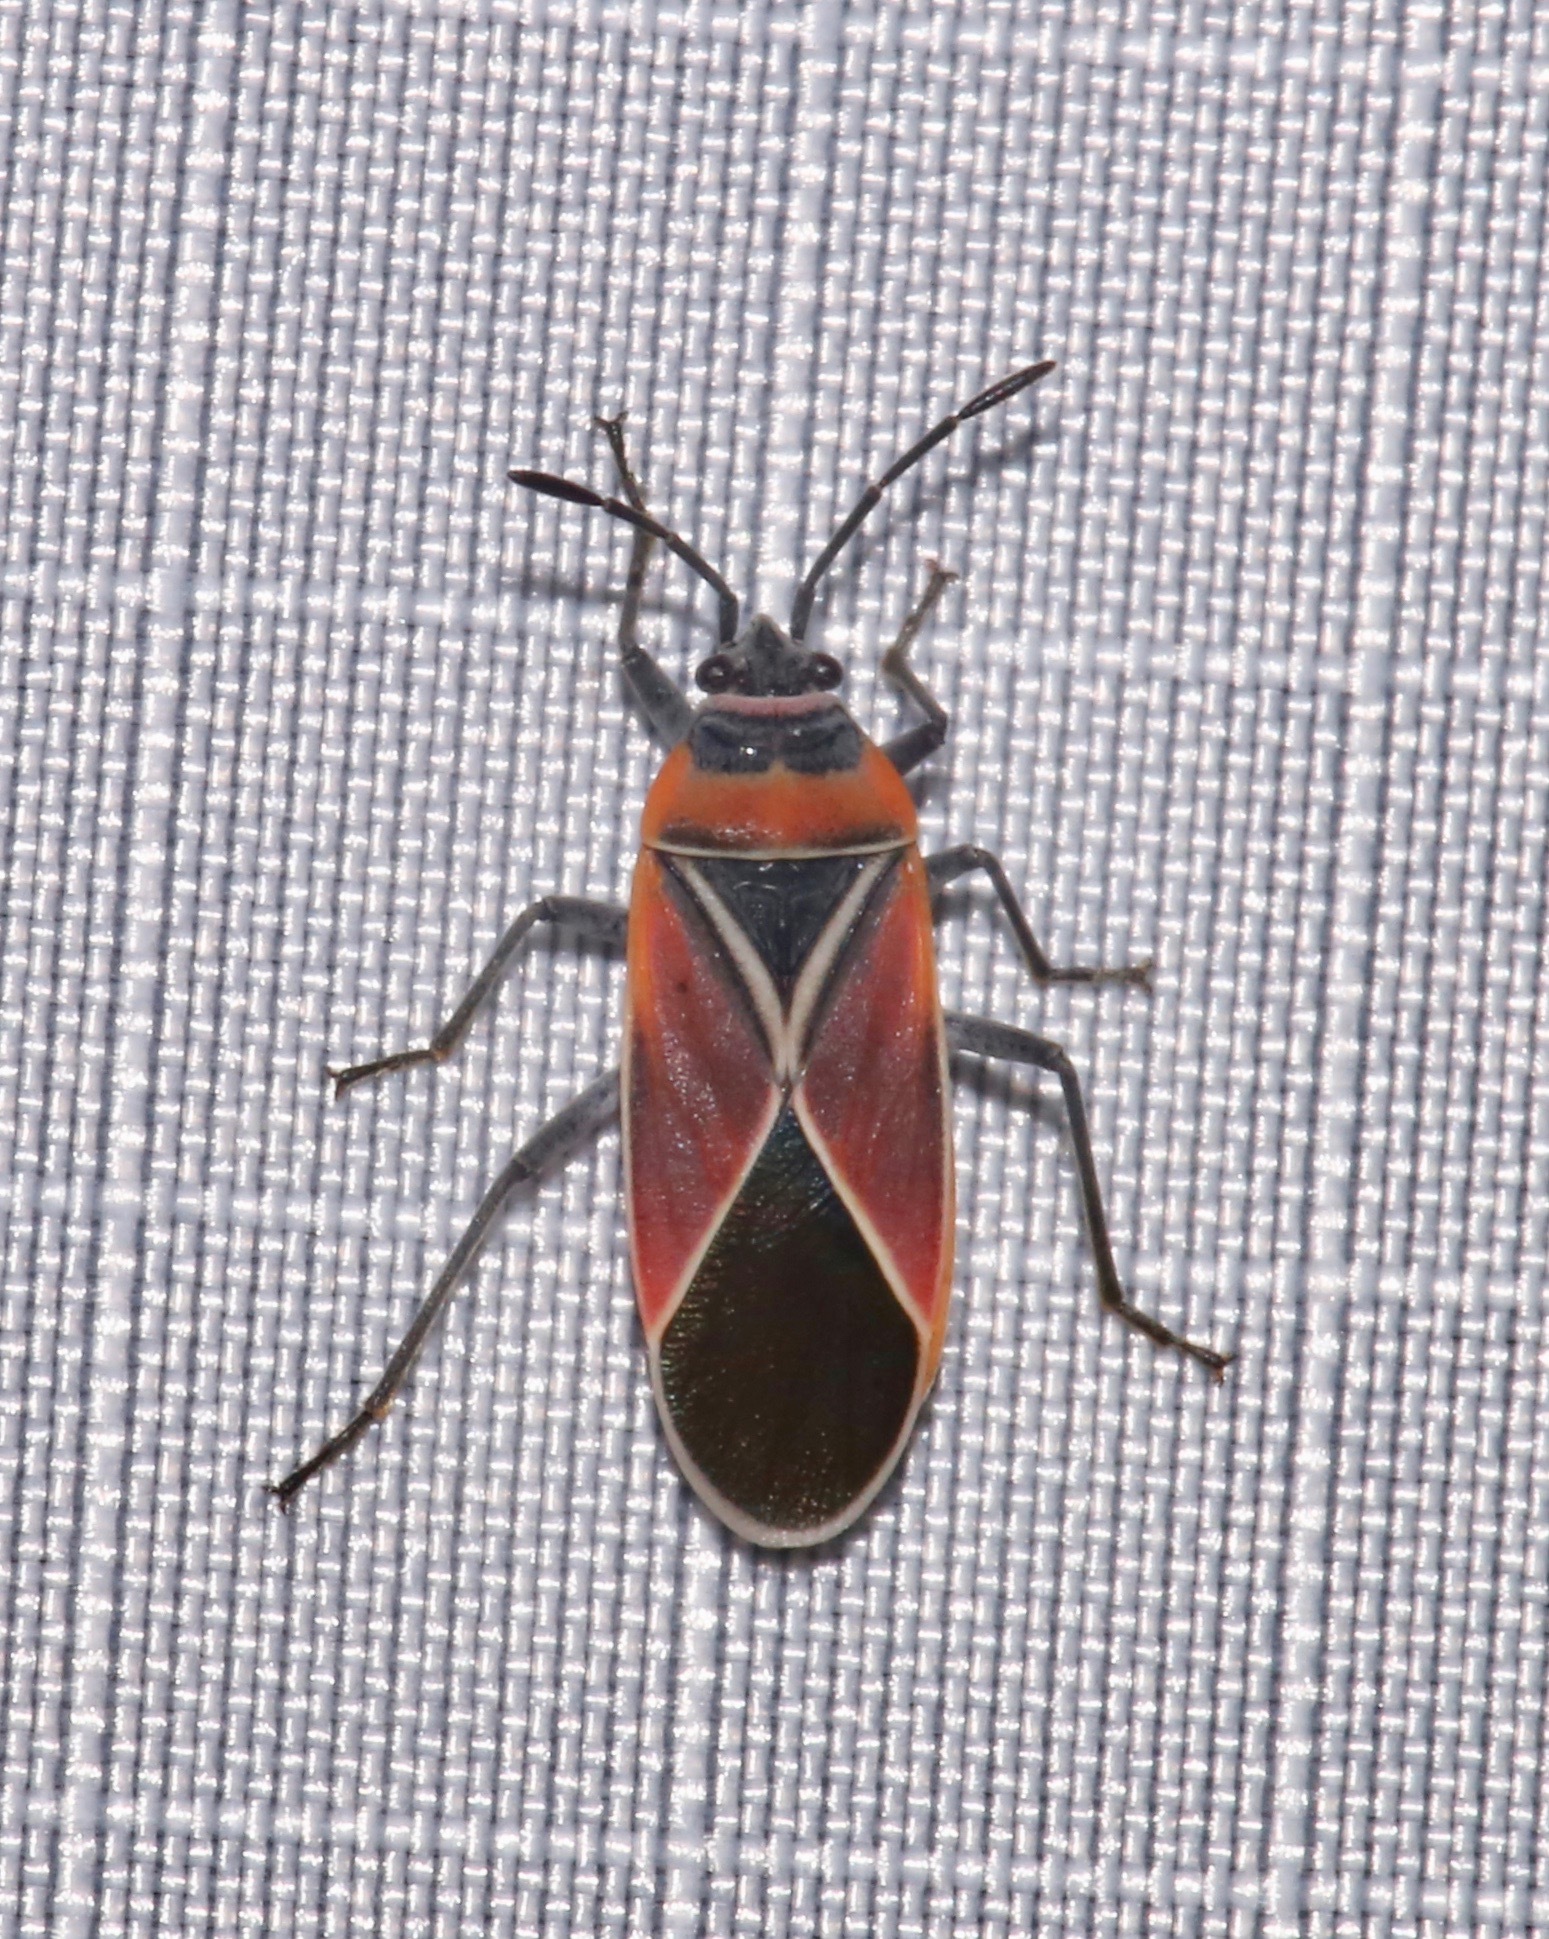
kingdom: Animalia
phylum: Arthropoda
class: Insecta
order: Hemiptera
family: Lygaeidae
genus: Neacoryphus
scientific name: Neacoryphus bicrucis
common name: Lygaeid bug
